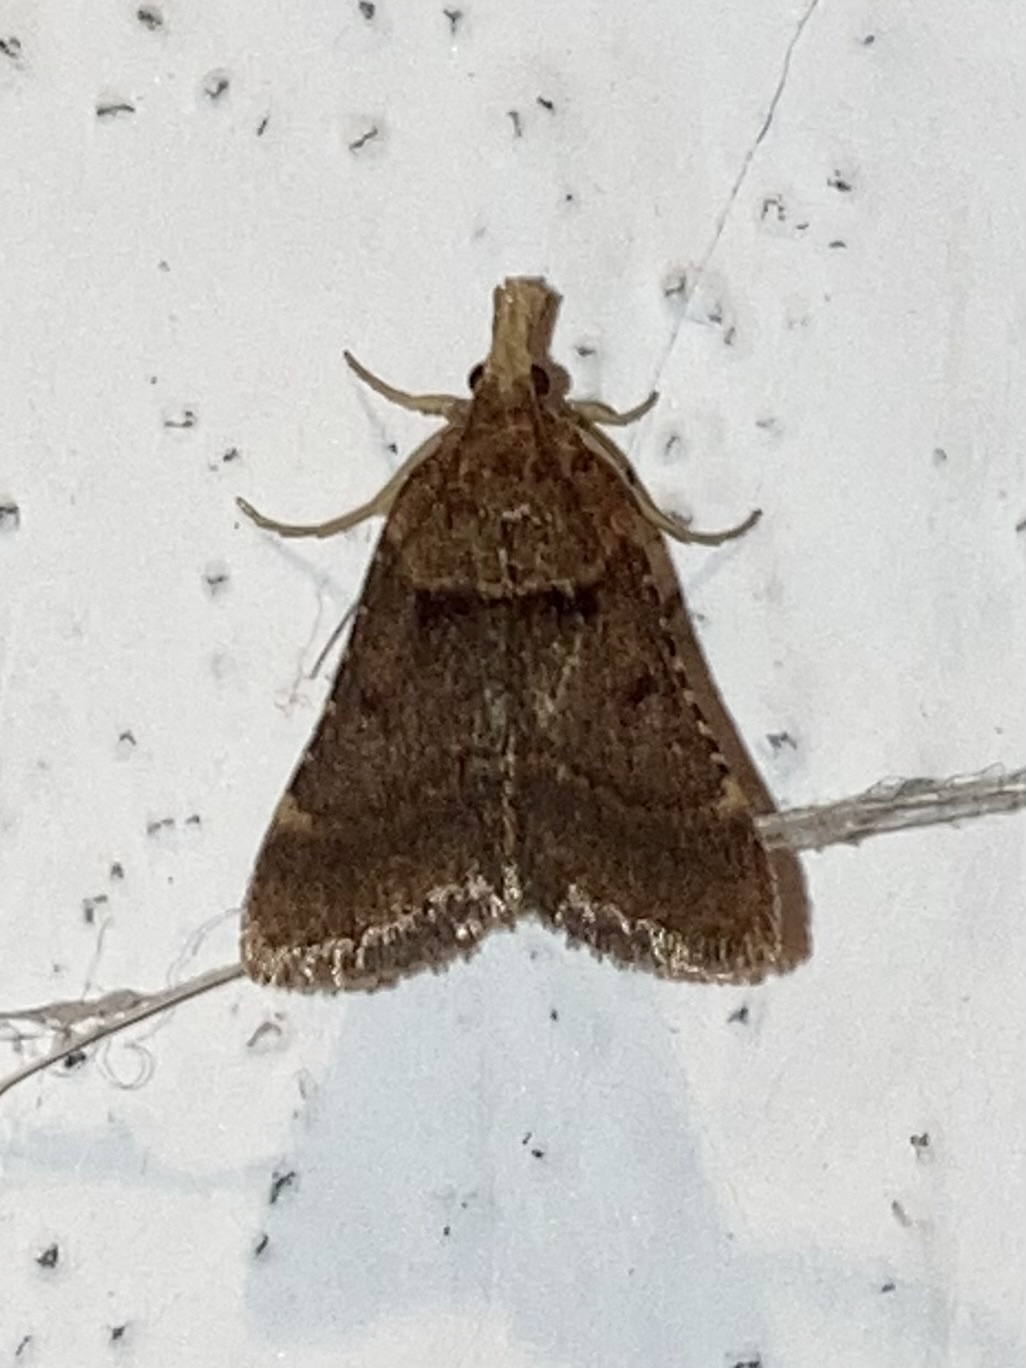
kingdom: Animalia
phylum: Arthropoda
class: Insecta
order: Lepidoptera
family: Pyralidae
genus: Stemmatophora
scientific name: Stemmatophora brunnealis
